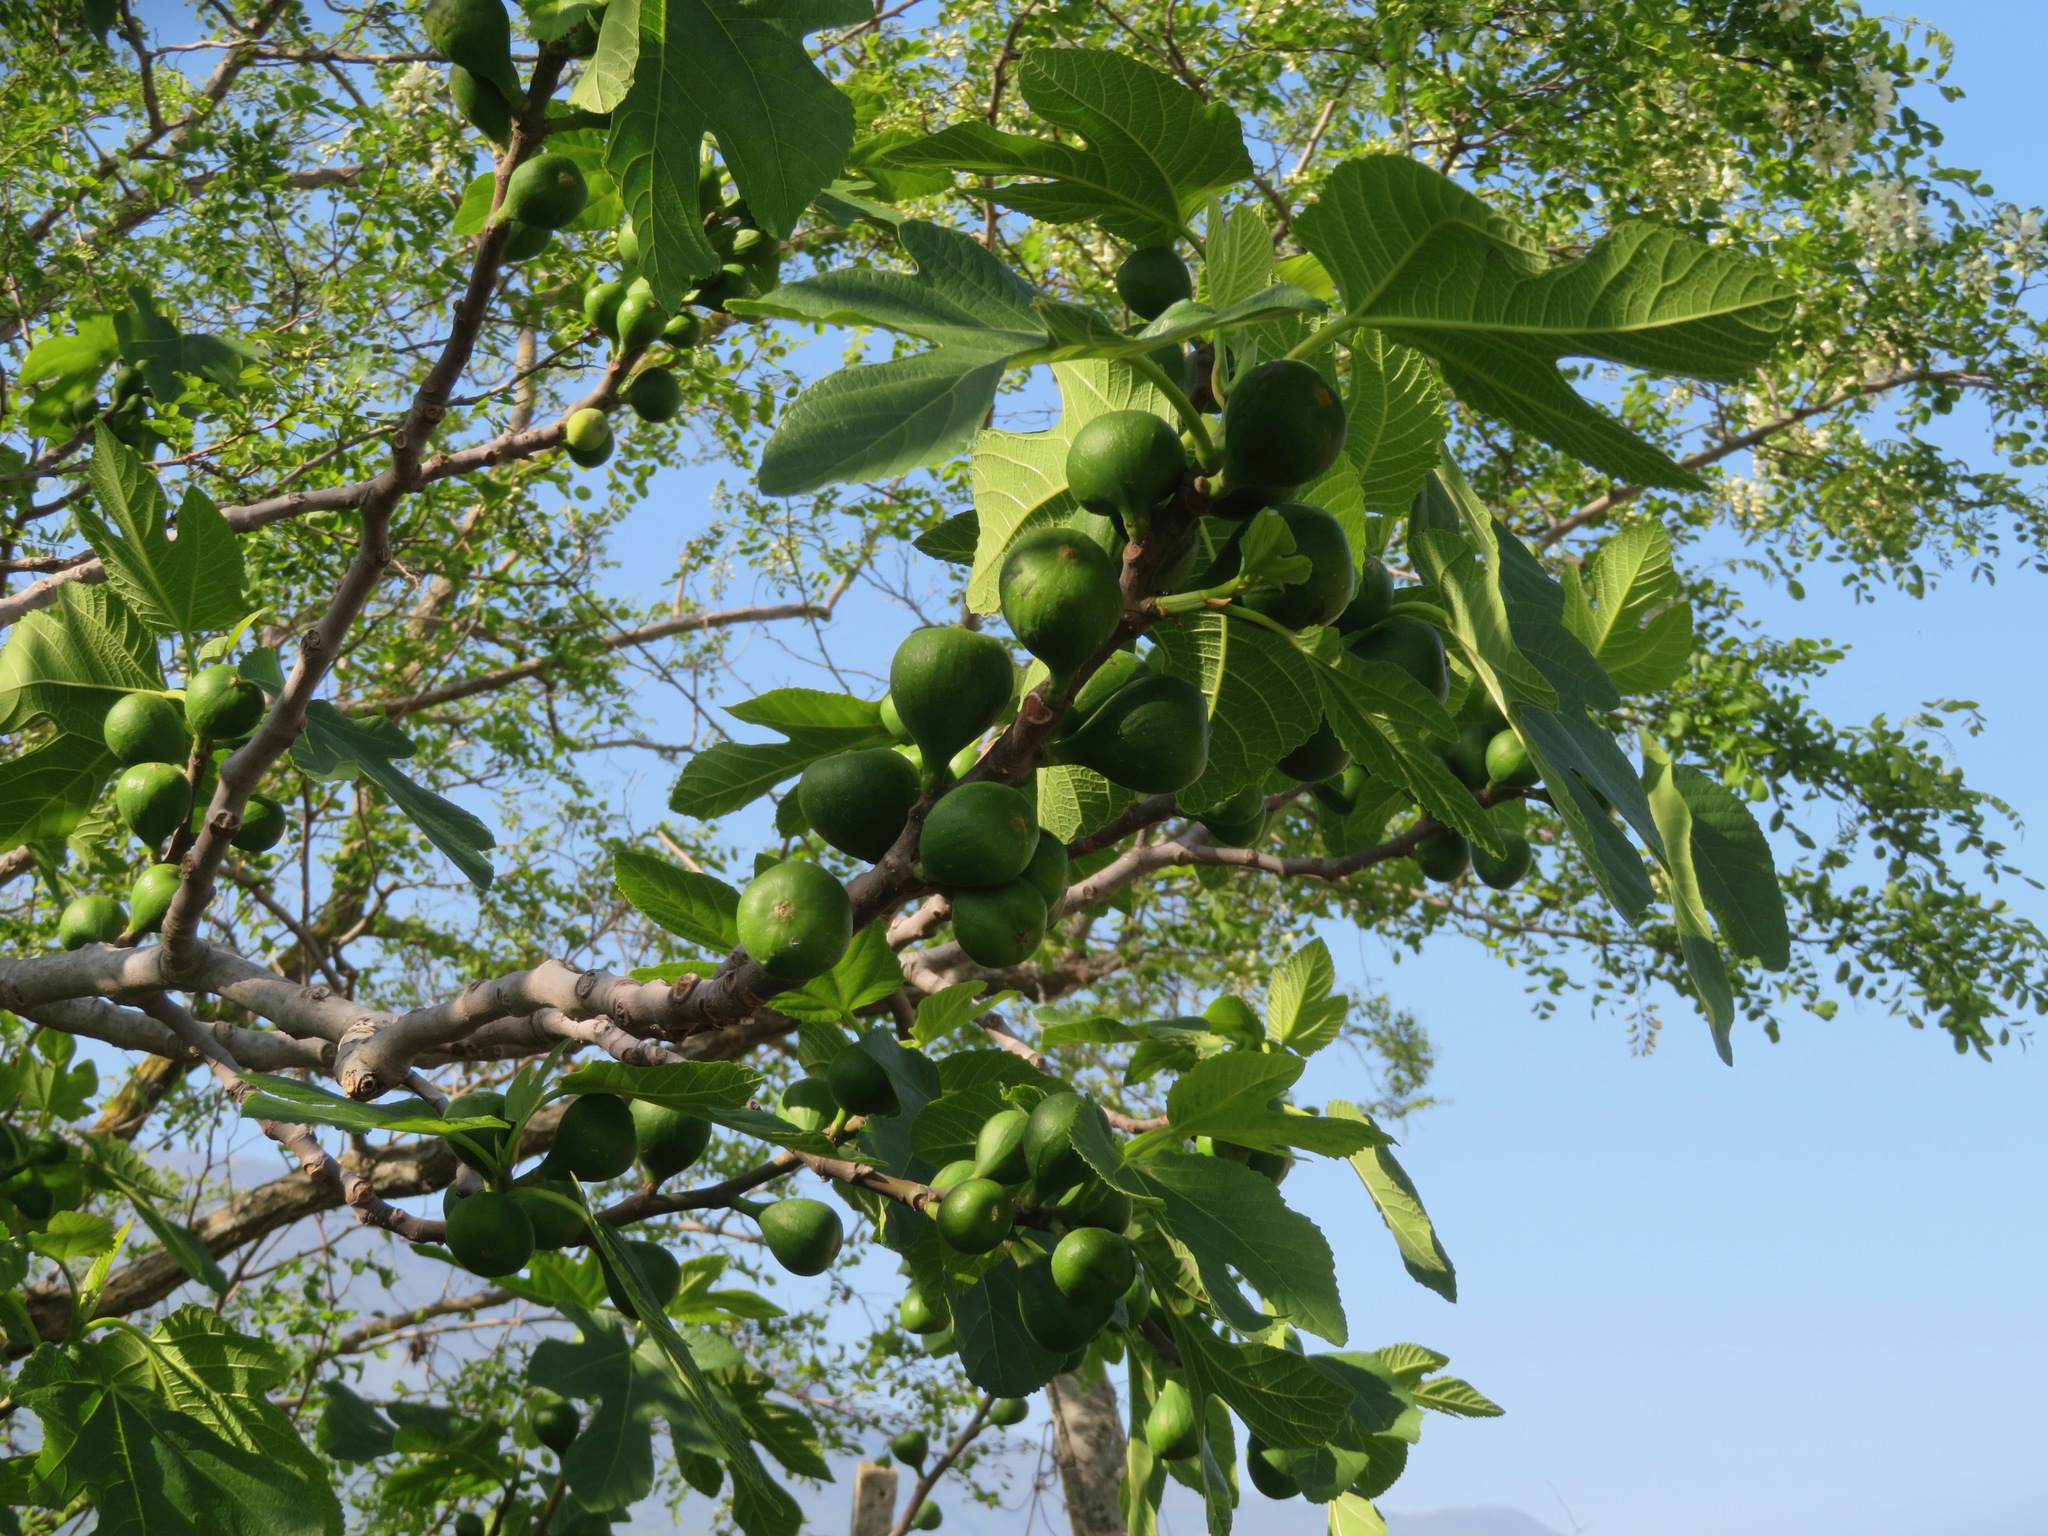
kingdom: Plantae
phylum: Tracheophyta
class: Magnoliopsida
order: Rosales
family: Moraceae
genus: Ficus
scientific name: Ficus carica
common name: Fig
